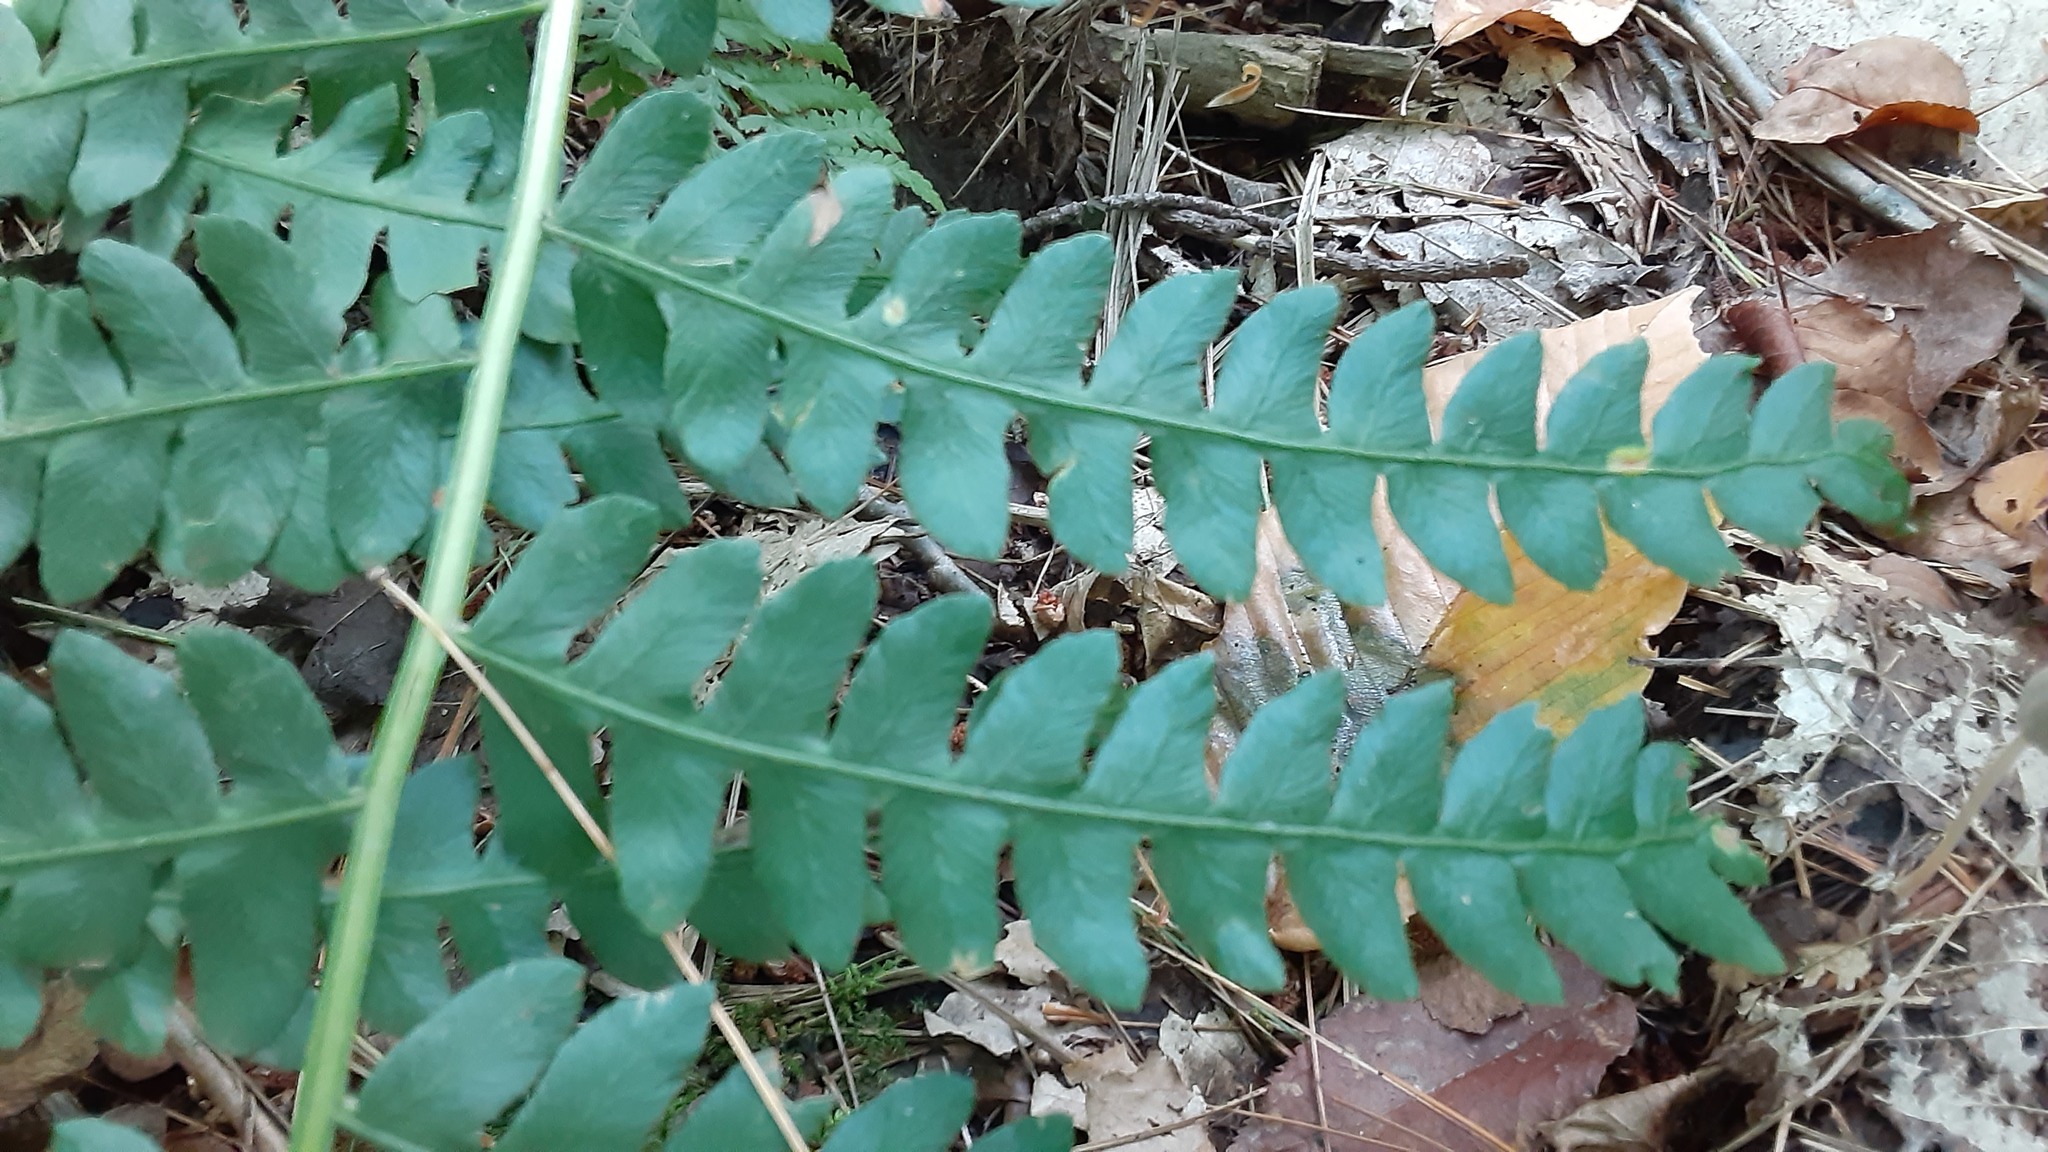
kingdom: Plantae
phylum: Tracheophyta
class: Polypodiopsida
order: Osmundales
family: Osmundaceae
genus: Osmundastrum
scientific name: Osmundastrum cinnamomeum
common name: Cinnamon fern
